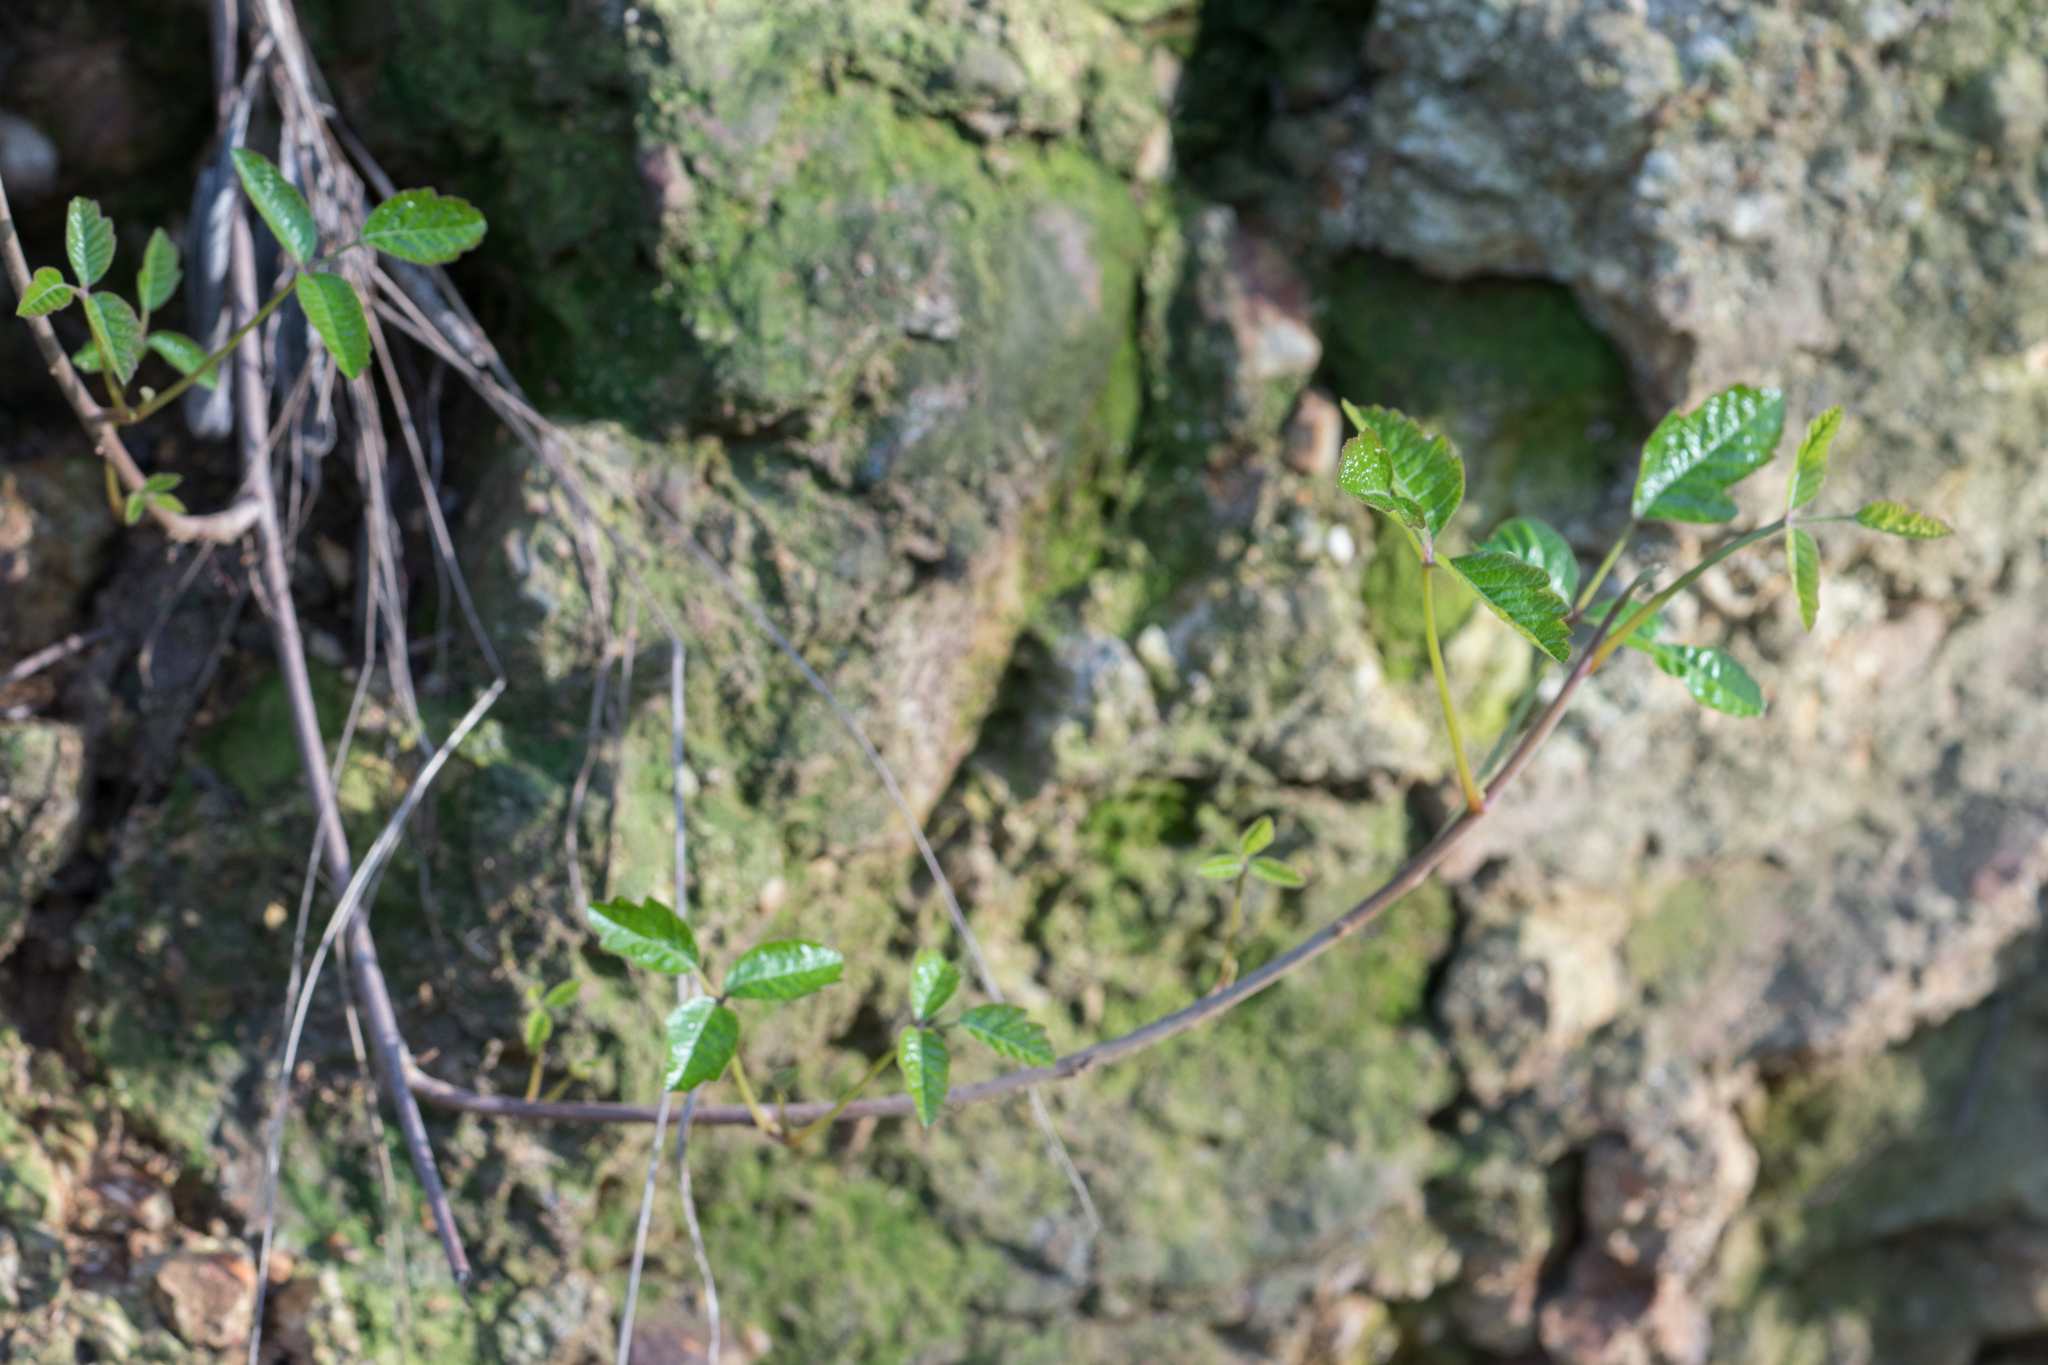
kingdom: Plantae
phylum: Tracheophyta
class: Magnoliopsida
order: Sapindales
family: Anacardiaceae
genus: Toxicodendron
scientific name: Toxicodendron diversilobum
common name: Pacific poison-oak
